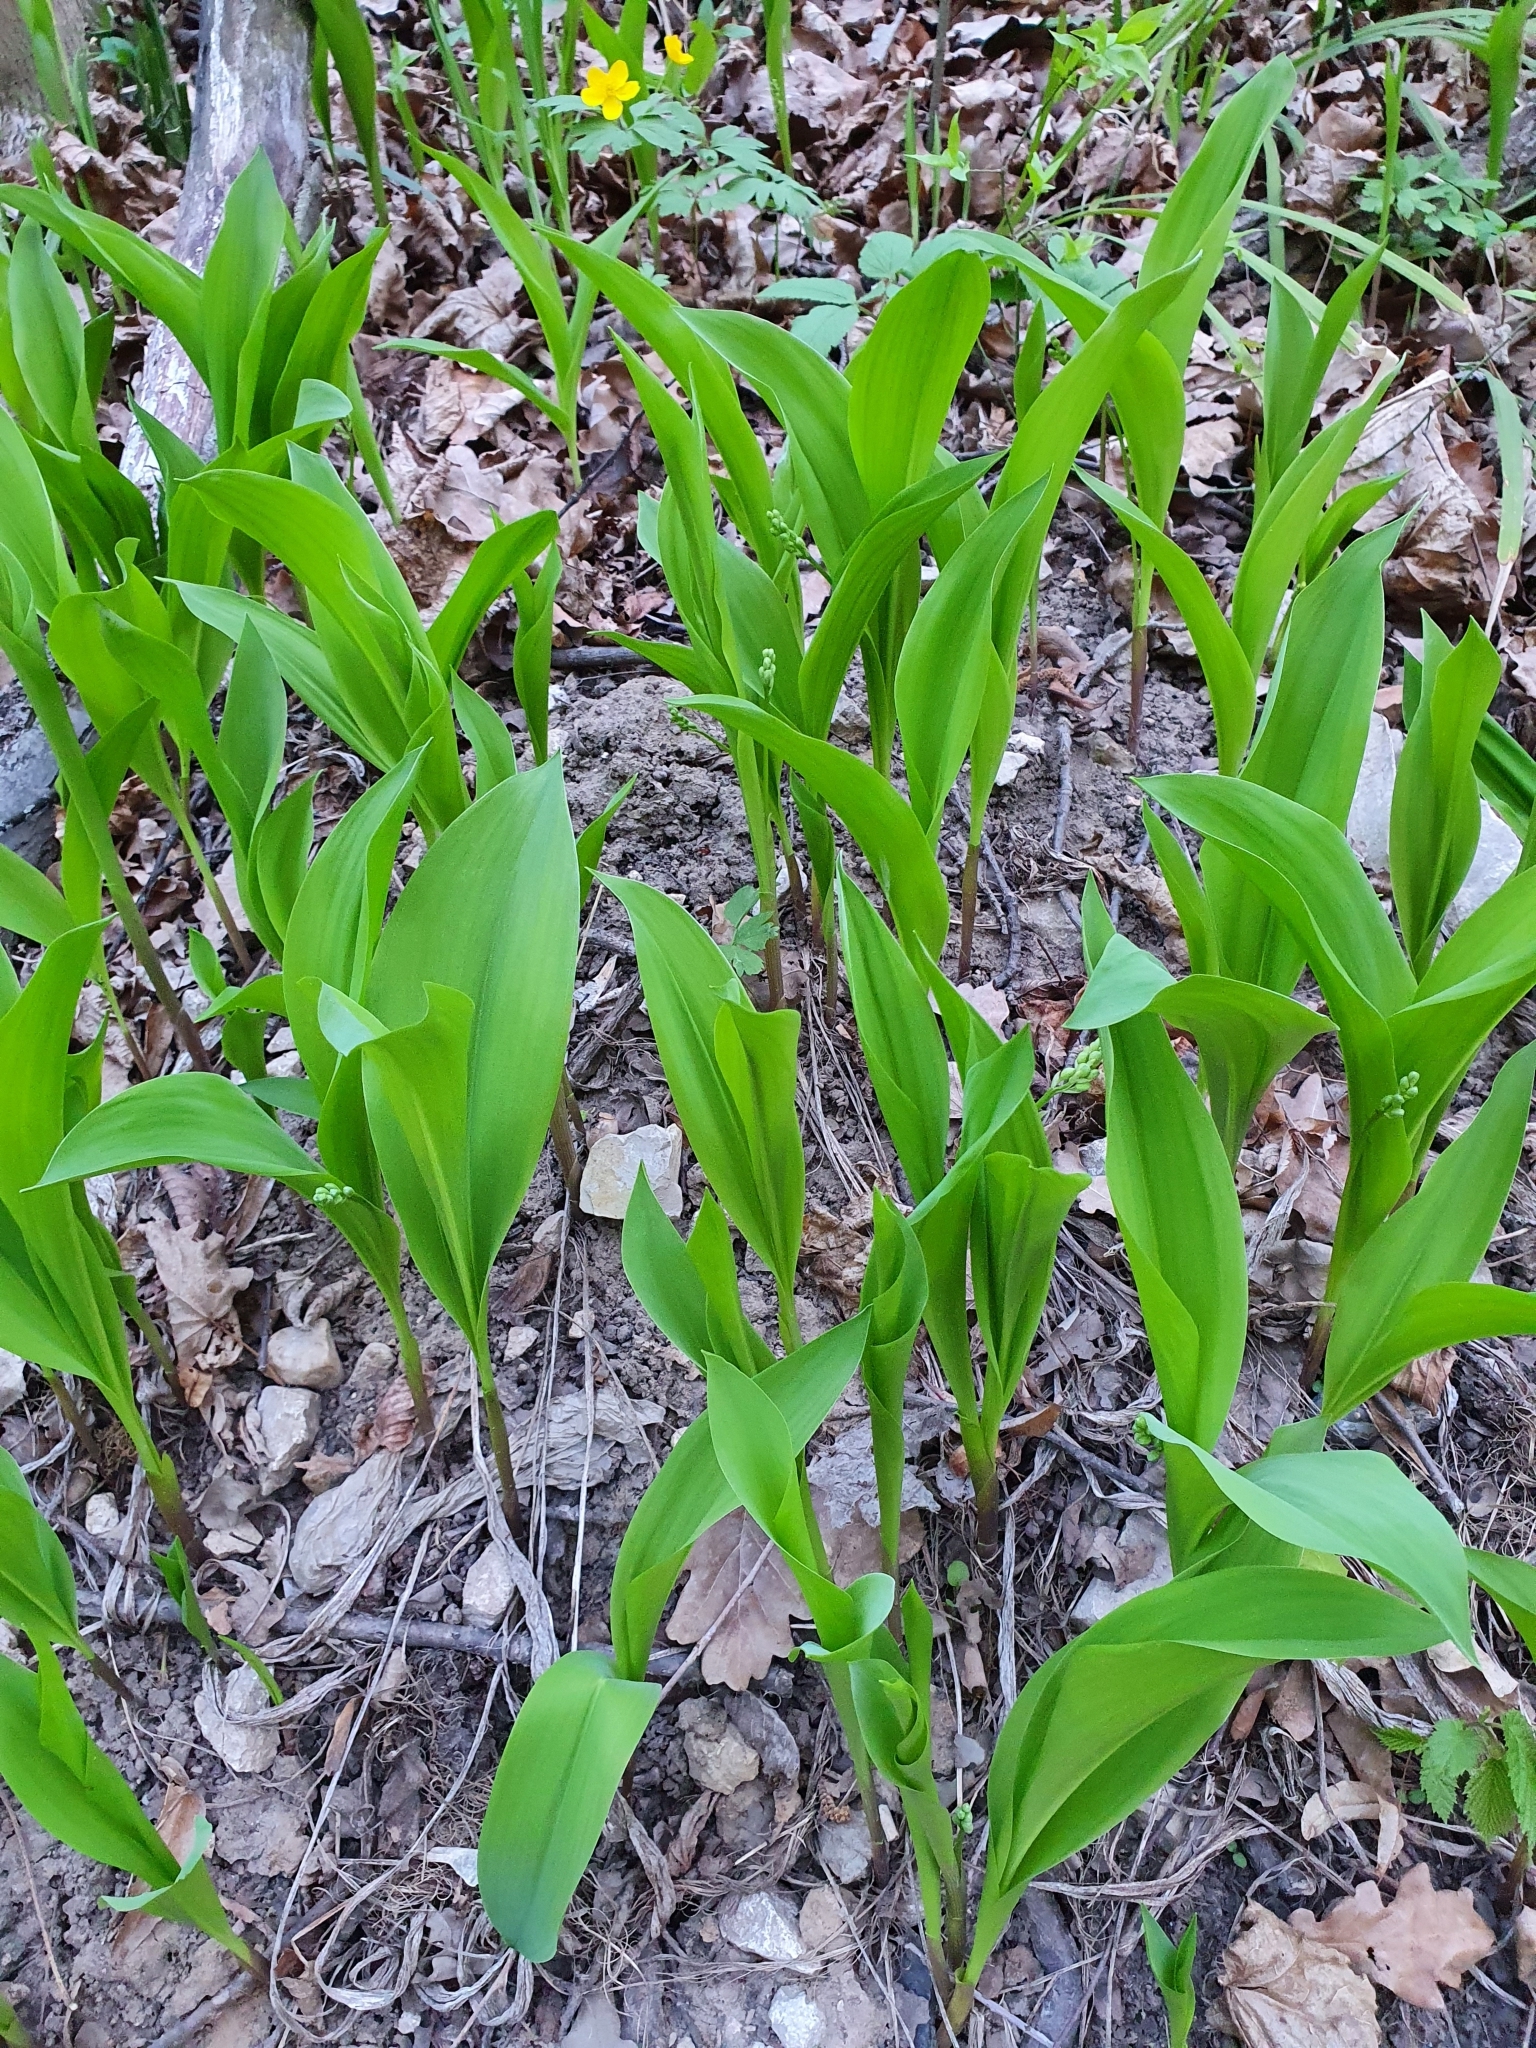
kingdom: Plantae
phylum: Tracheophyta
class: Liliopsida
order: Asparagales
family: Asparagaceae
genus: Convallaria
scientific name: Convallaria majalis
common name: Lily-of-the-valley
